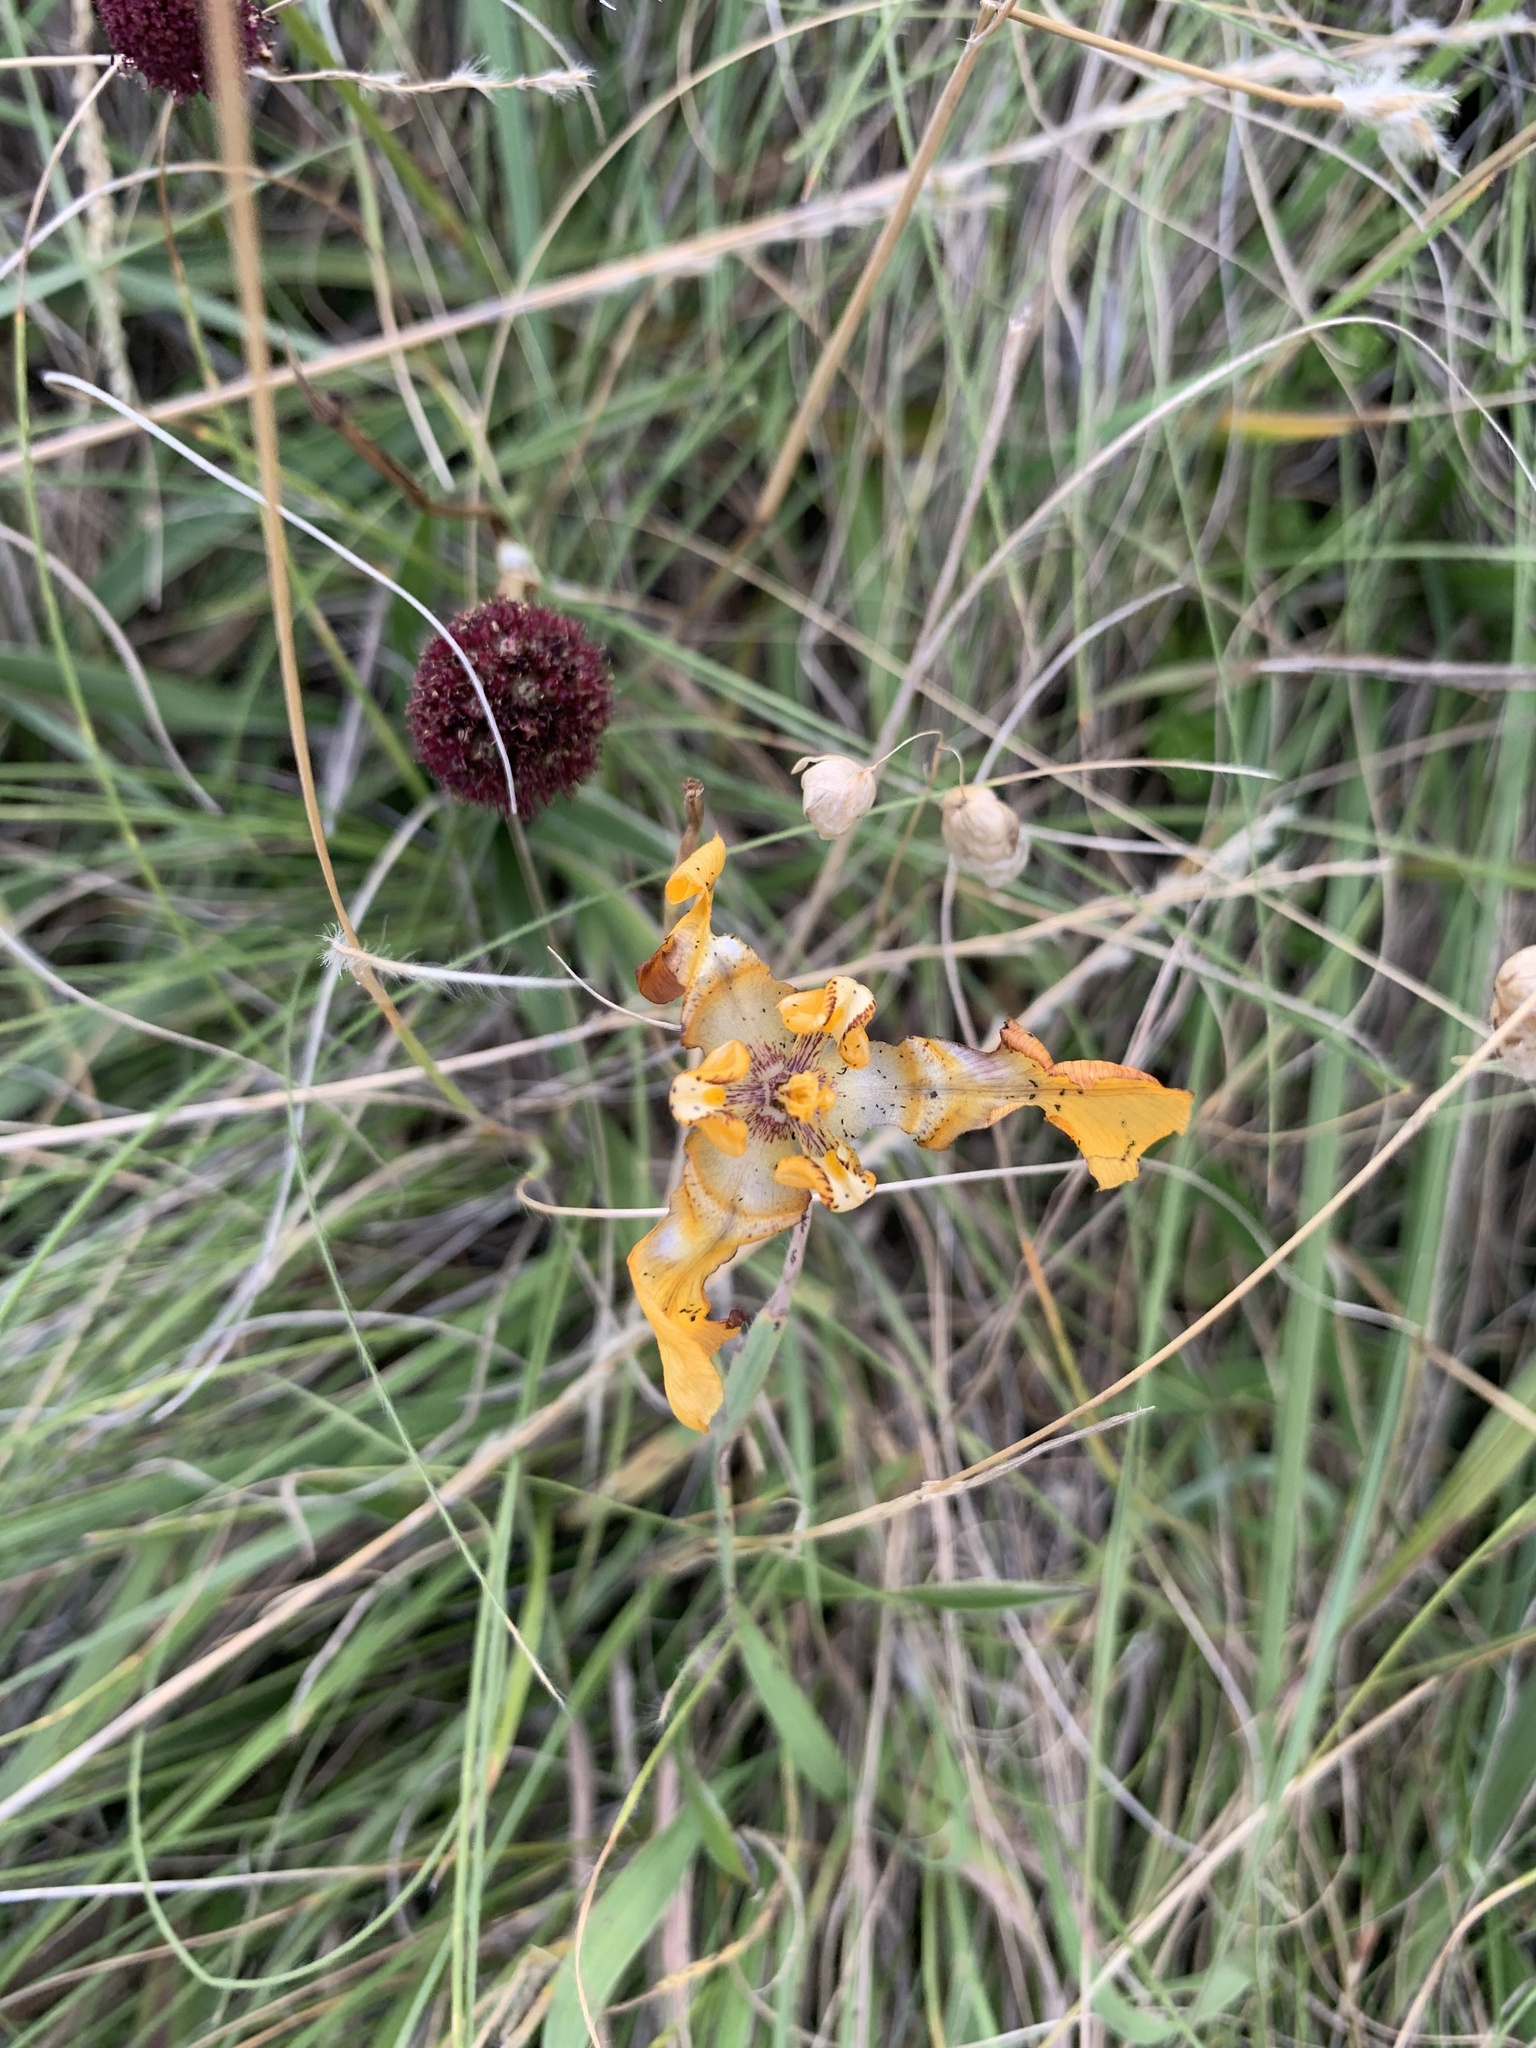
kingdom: Plantae
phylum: Tracheophyta
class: Liliopsida
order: Asparagales
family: Iridaceae
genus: Cypella
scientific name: Cypella fucata
